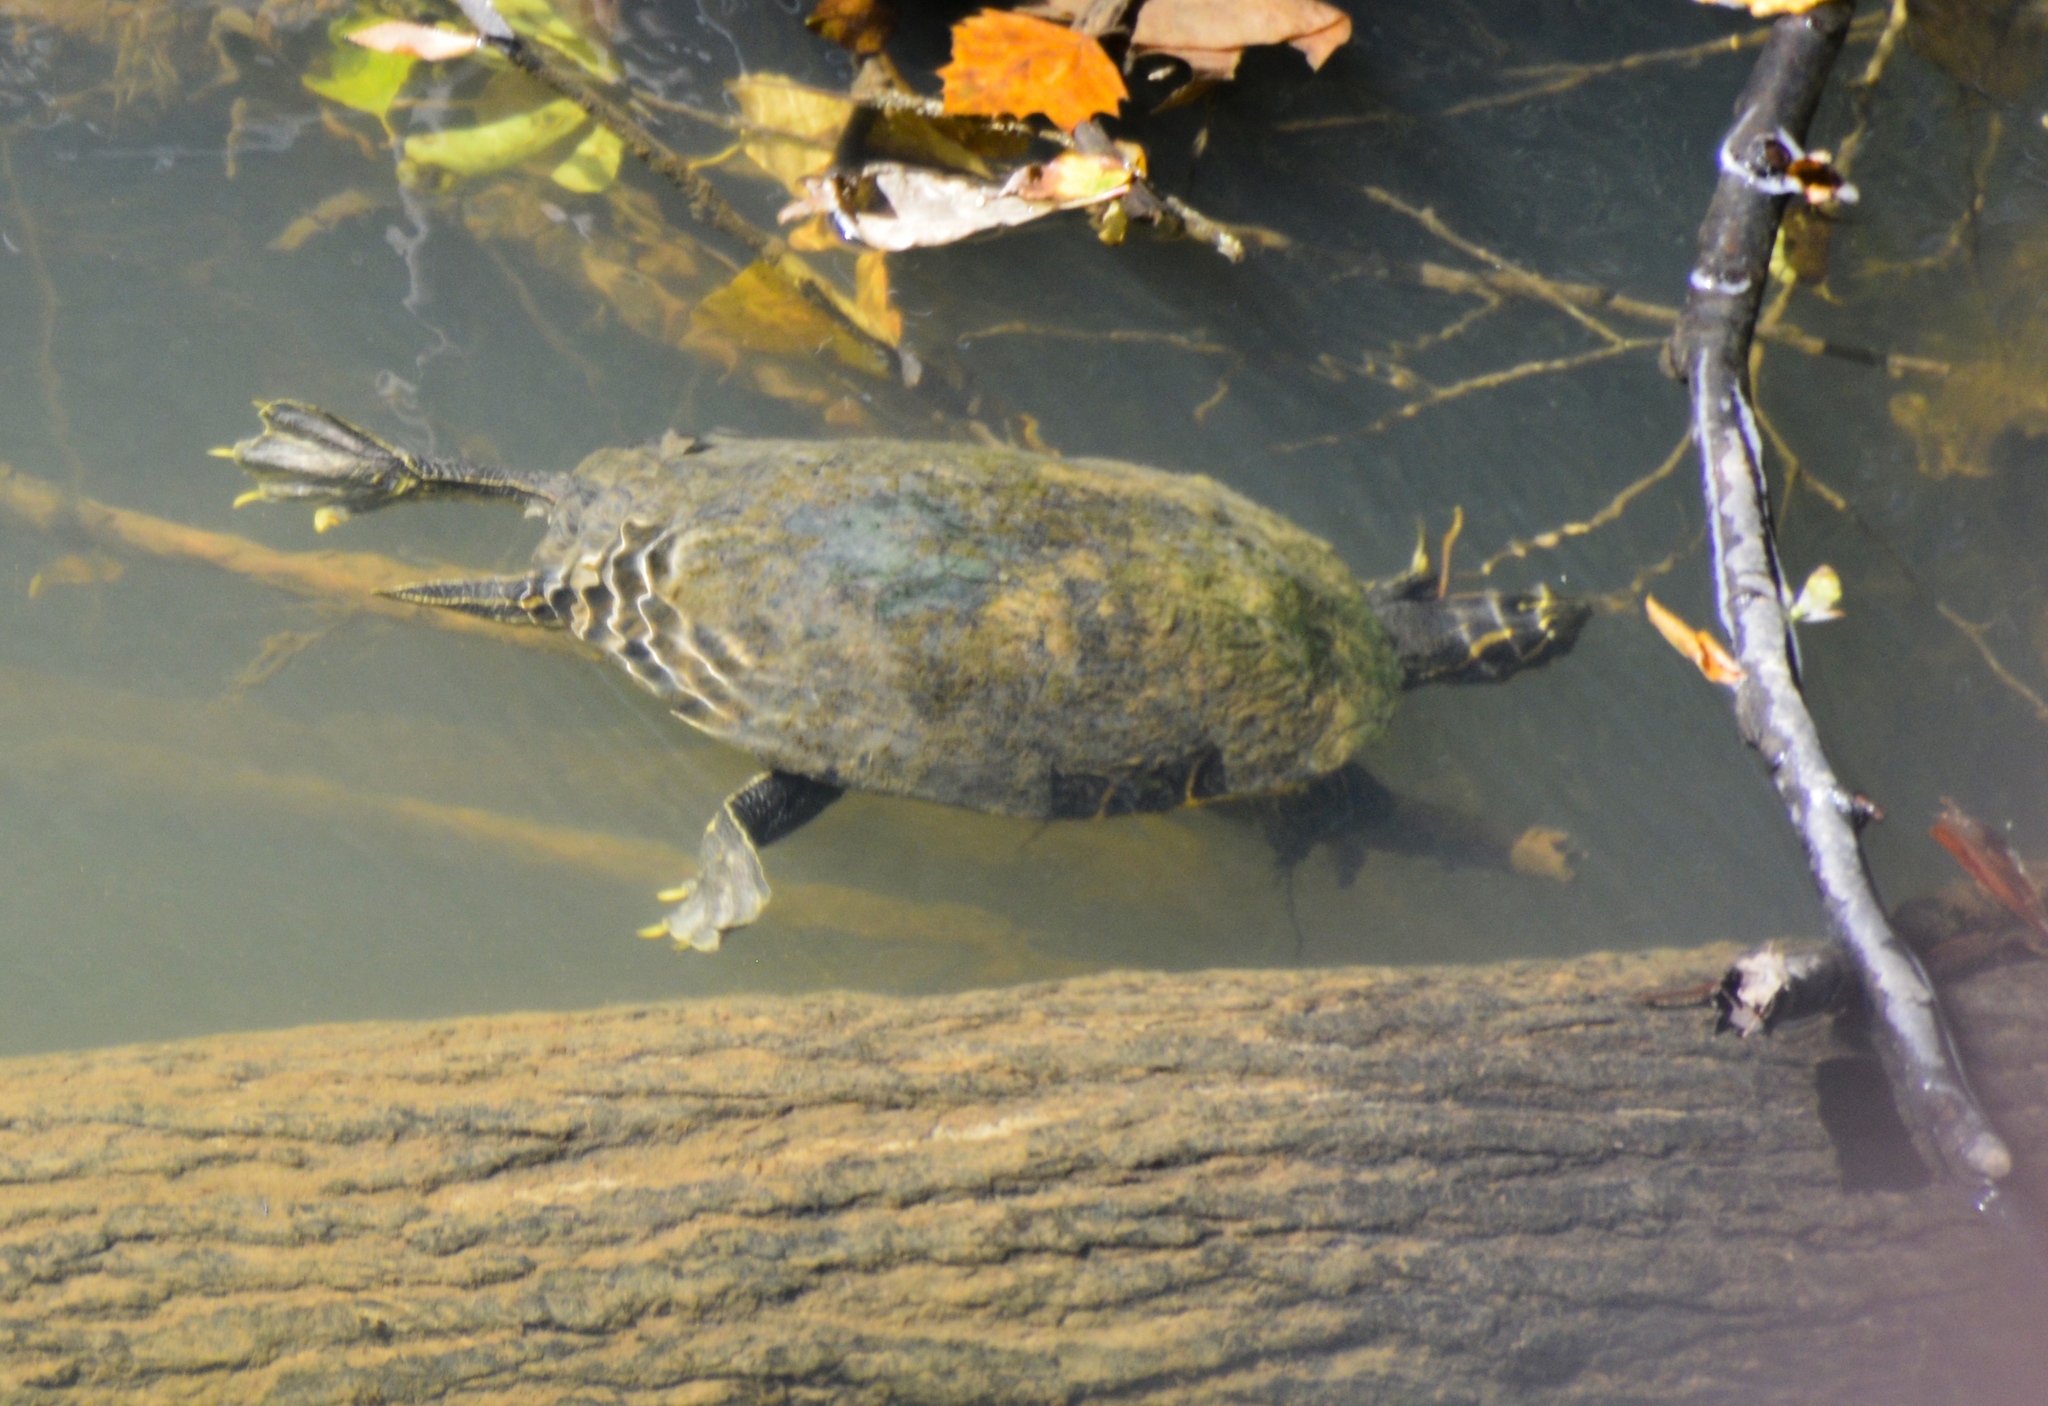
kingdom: Animalia
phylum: Chordata
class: Testudines
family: Emydidae
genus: Pseudemys
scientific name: Pseudemys concinna
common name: Eastern river cooter
